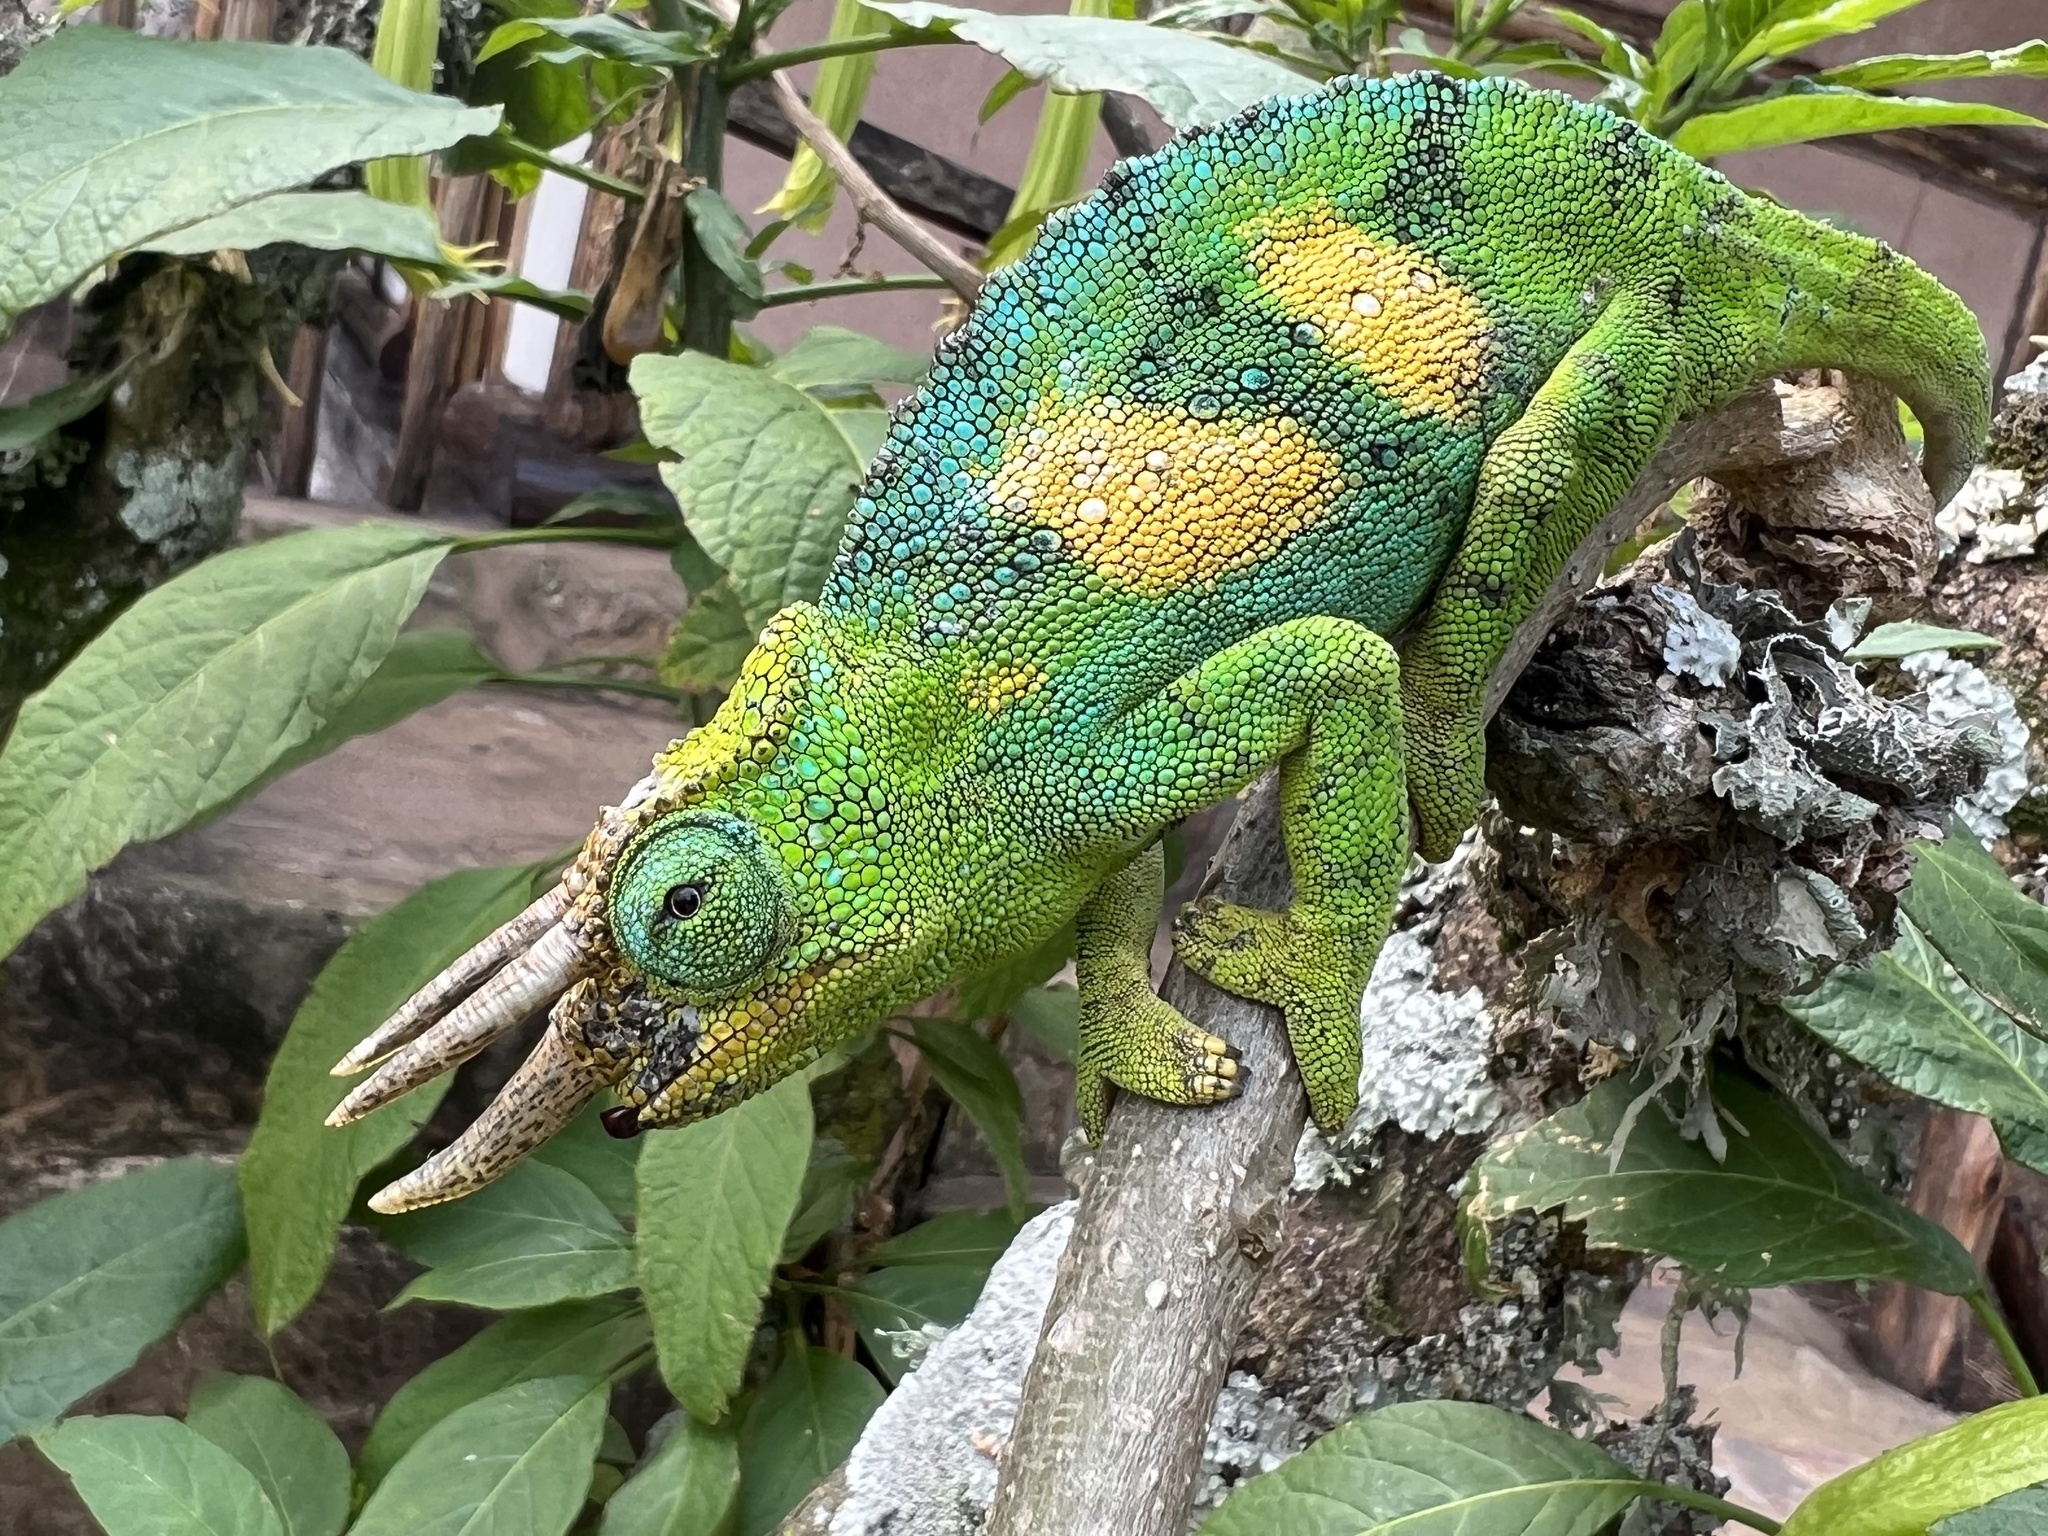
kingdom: Animalia
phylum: Chordata
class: Squamata
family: Chamaeleonidae
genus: Trioceros
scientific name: Trioceros johnstoni
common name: Johnston's chameleon
